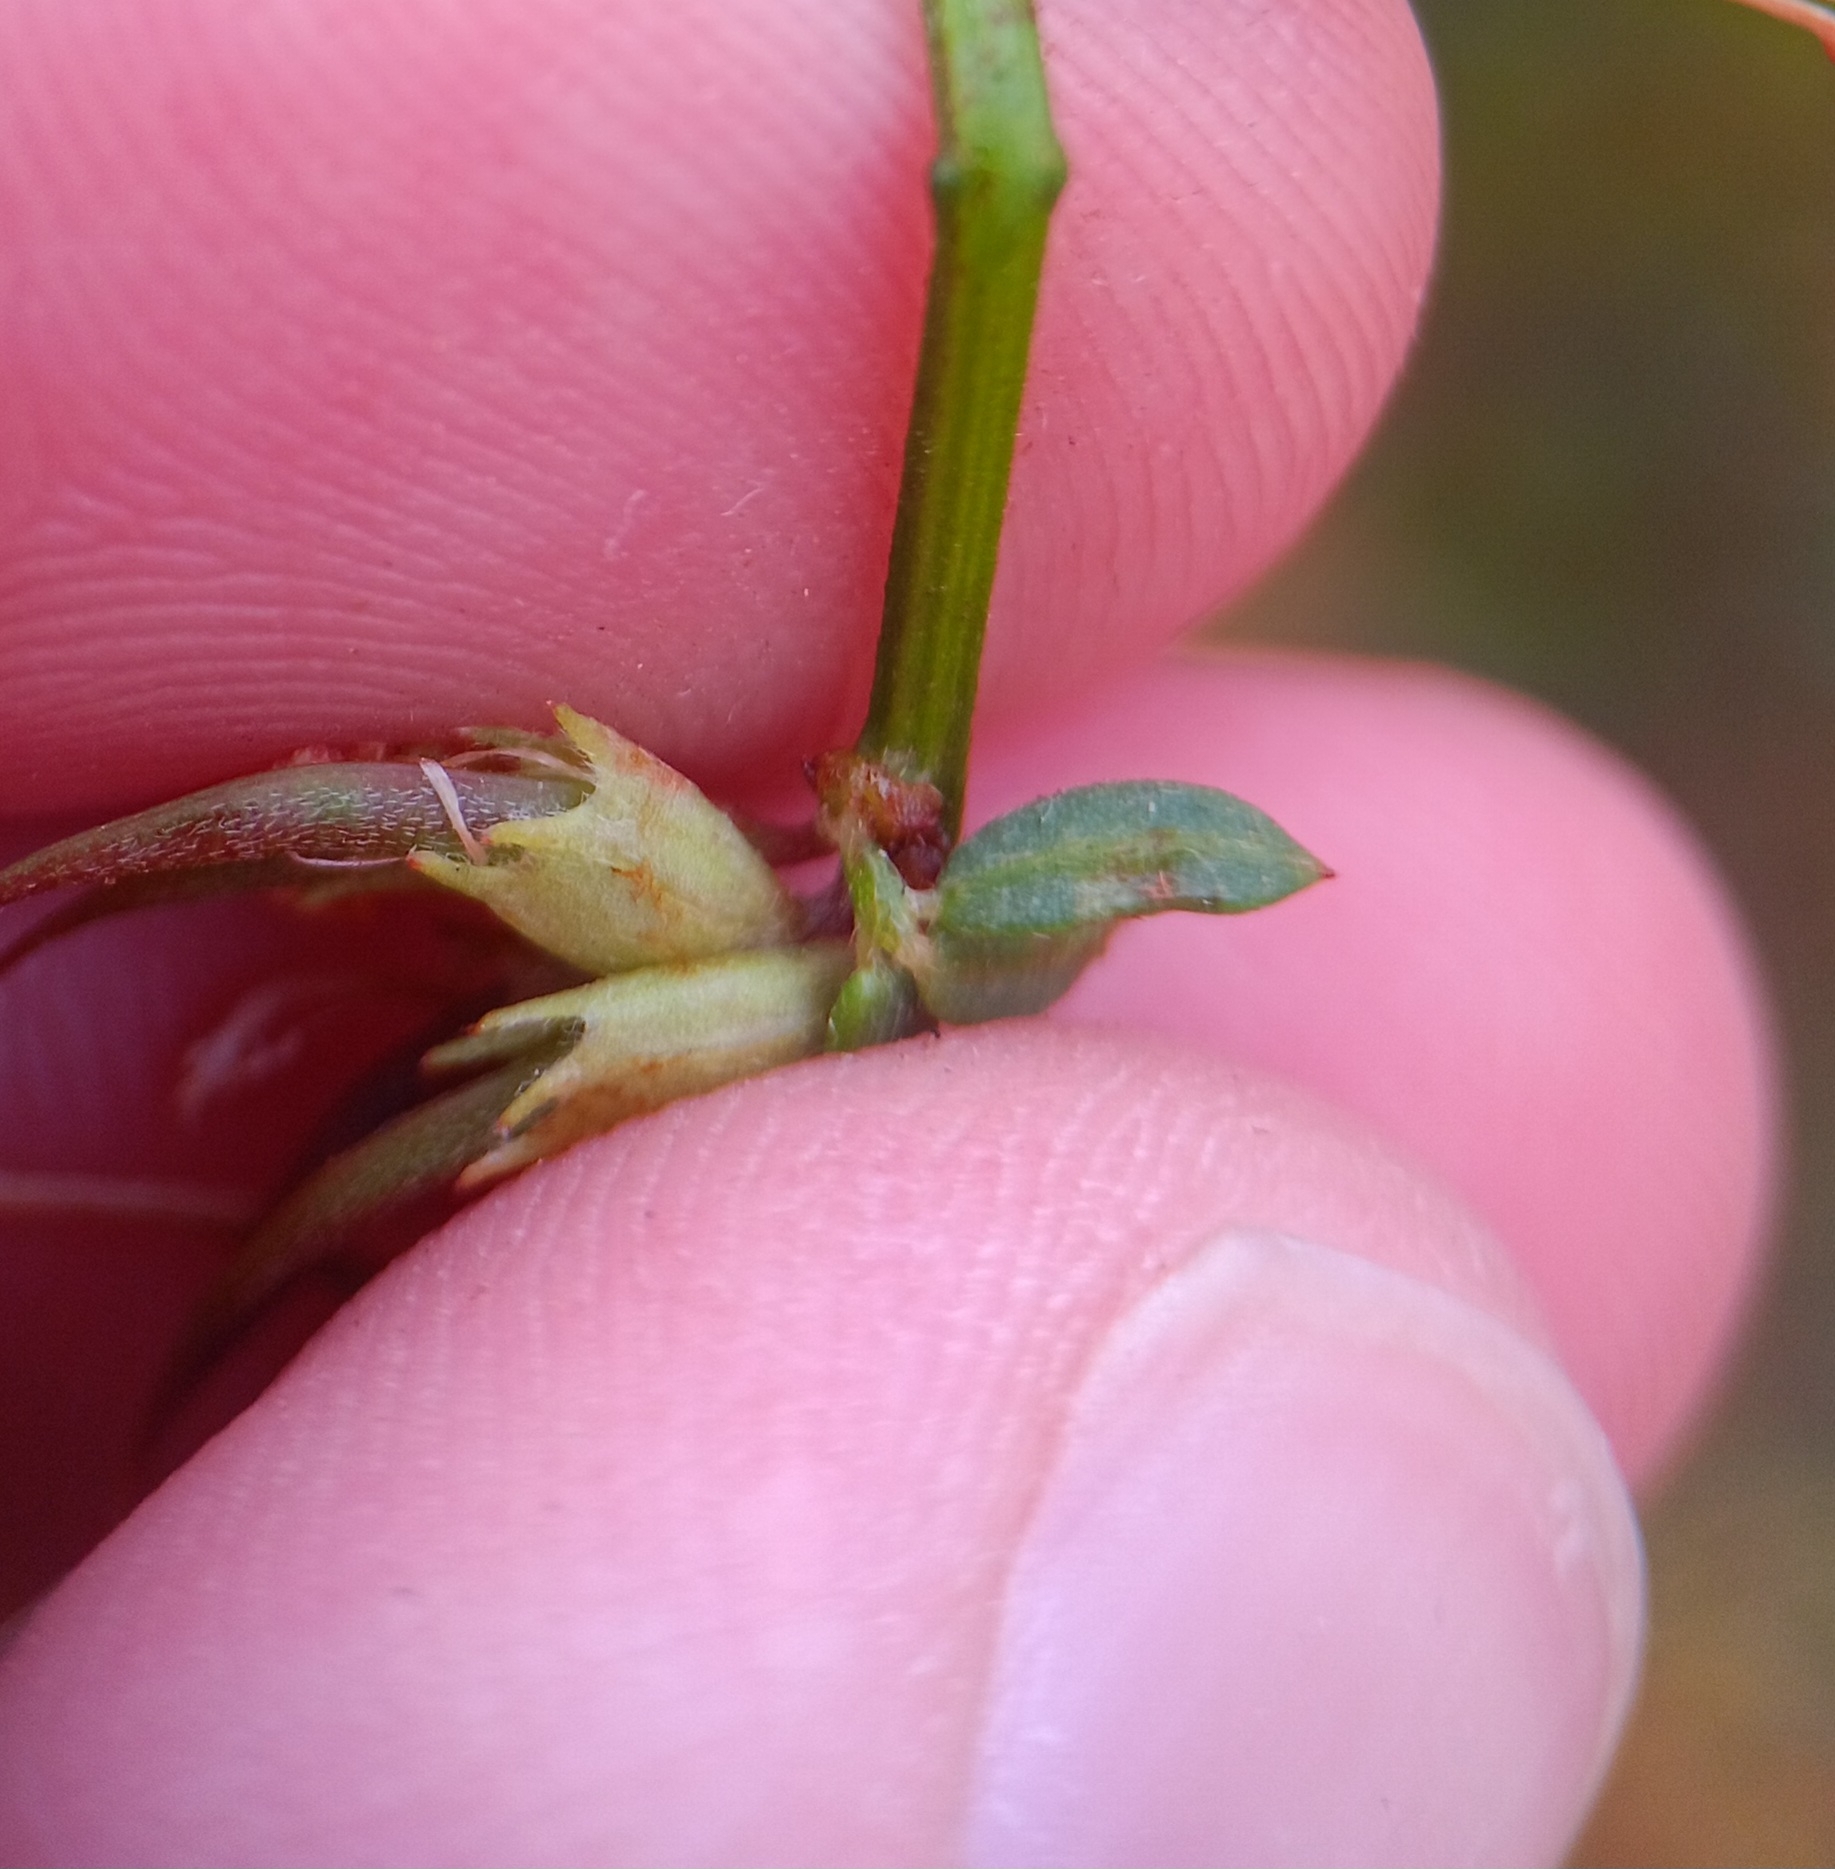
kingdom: Plantae
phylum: Tracheophyta
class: Magnoliopsida
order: Fabales
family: Fabaceae
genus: Acmispon
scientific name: Acmispon glaber
